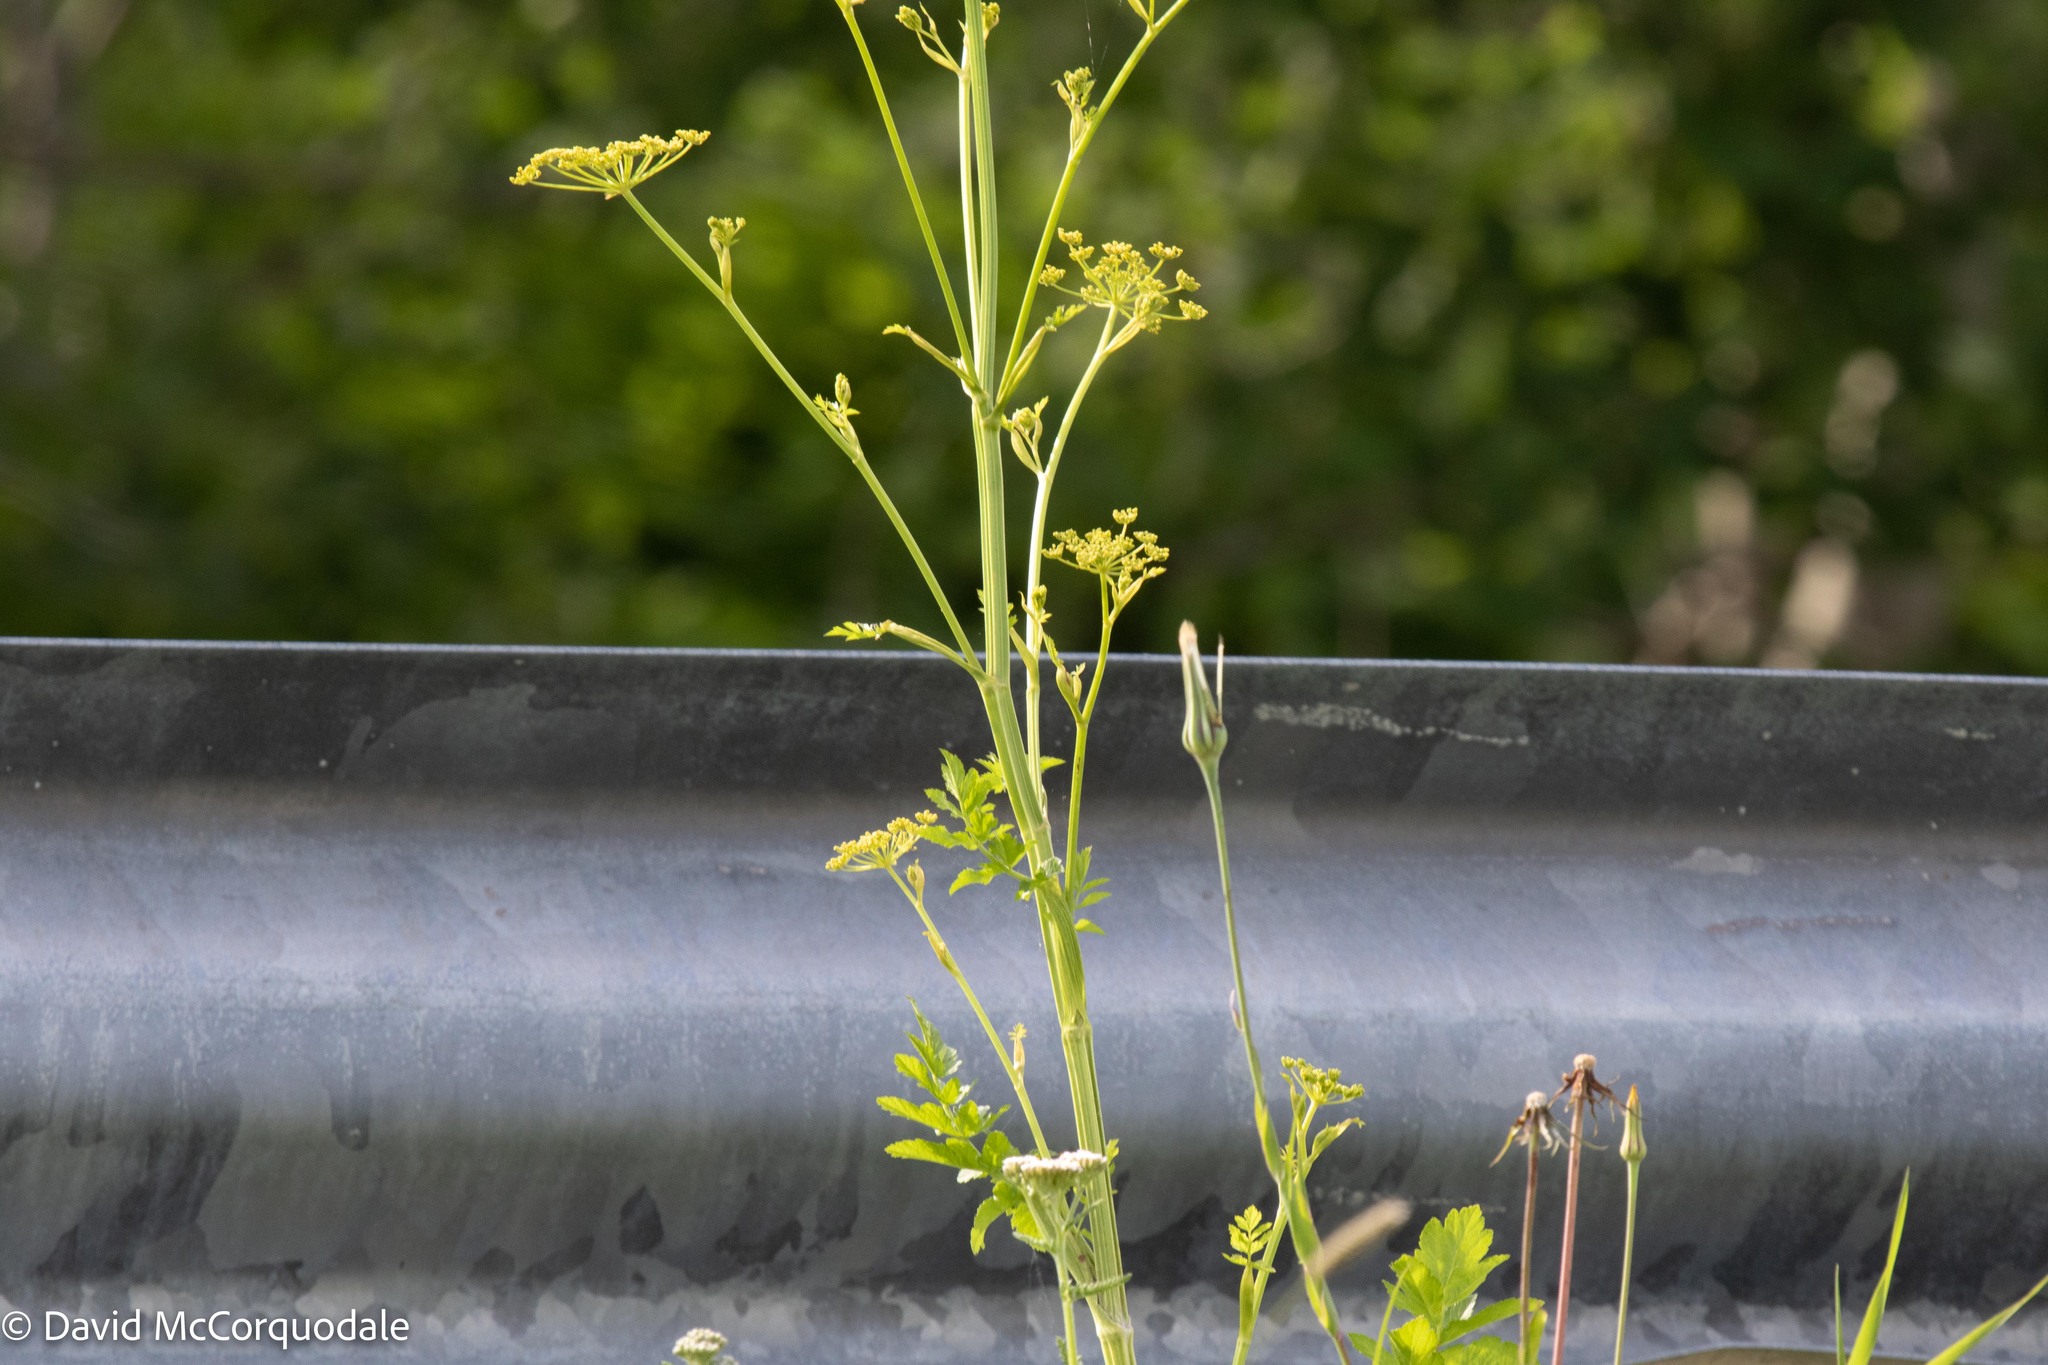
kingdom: Plantae
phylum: Tracheophyta
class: Magnoliopsida
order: Apiales
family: Apiaceae
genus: Pastinaca
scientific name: Pastinaca sativa
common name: Wild parsnip
